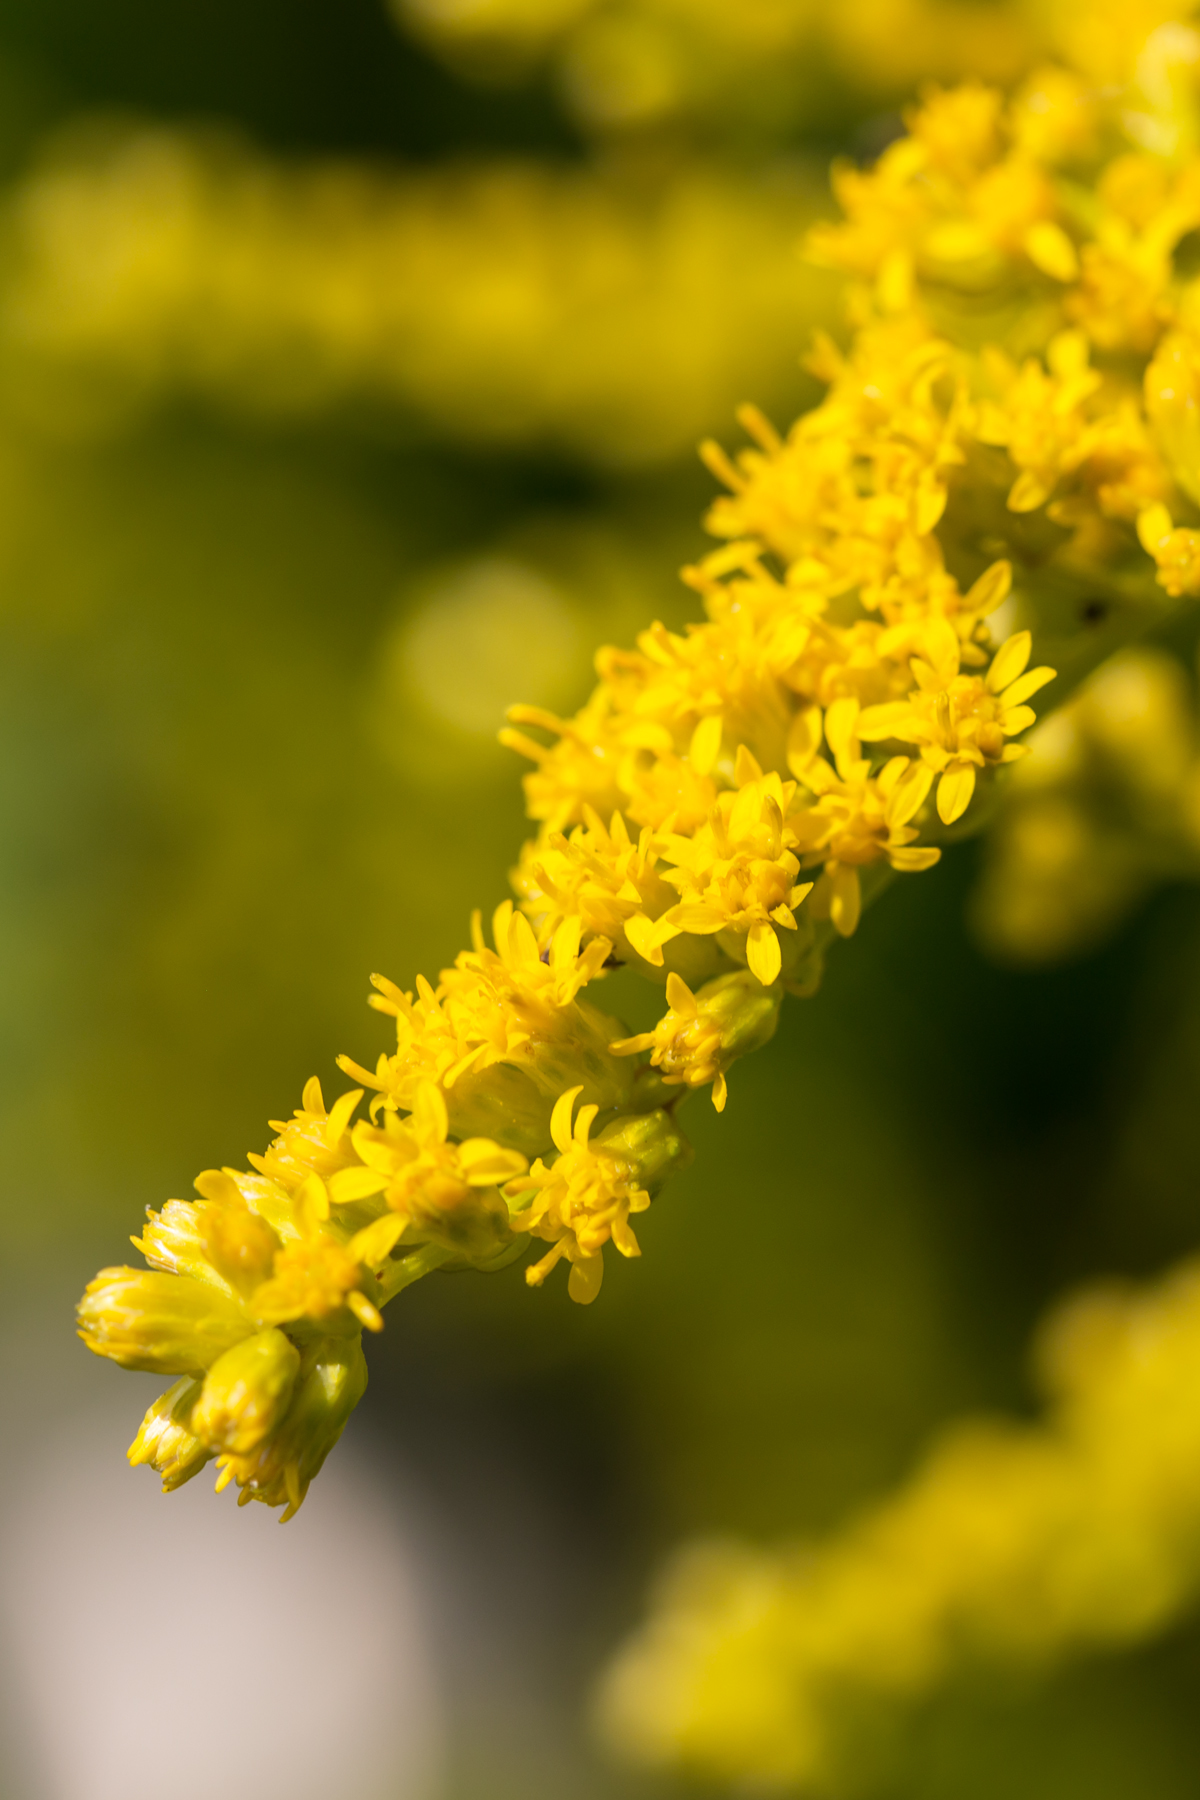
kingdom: Plantae
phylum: Tracheophyta
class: Magnoliopsida
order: Asterales
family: Asteraceae
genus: Solidago
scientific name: Solidago juncea
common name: Early goldenrod
